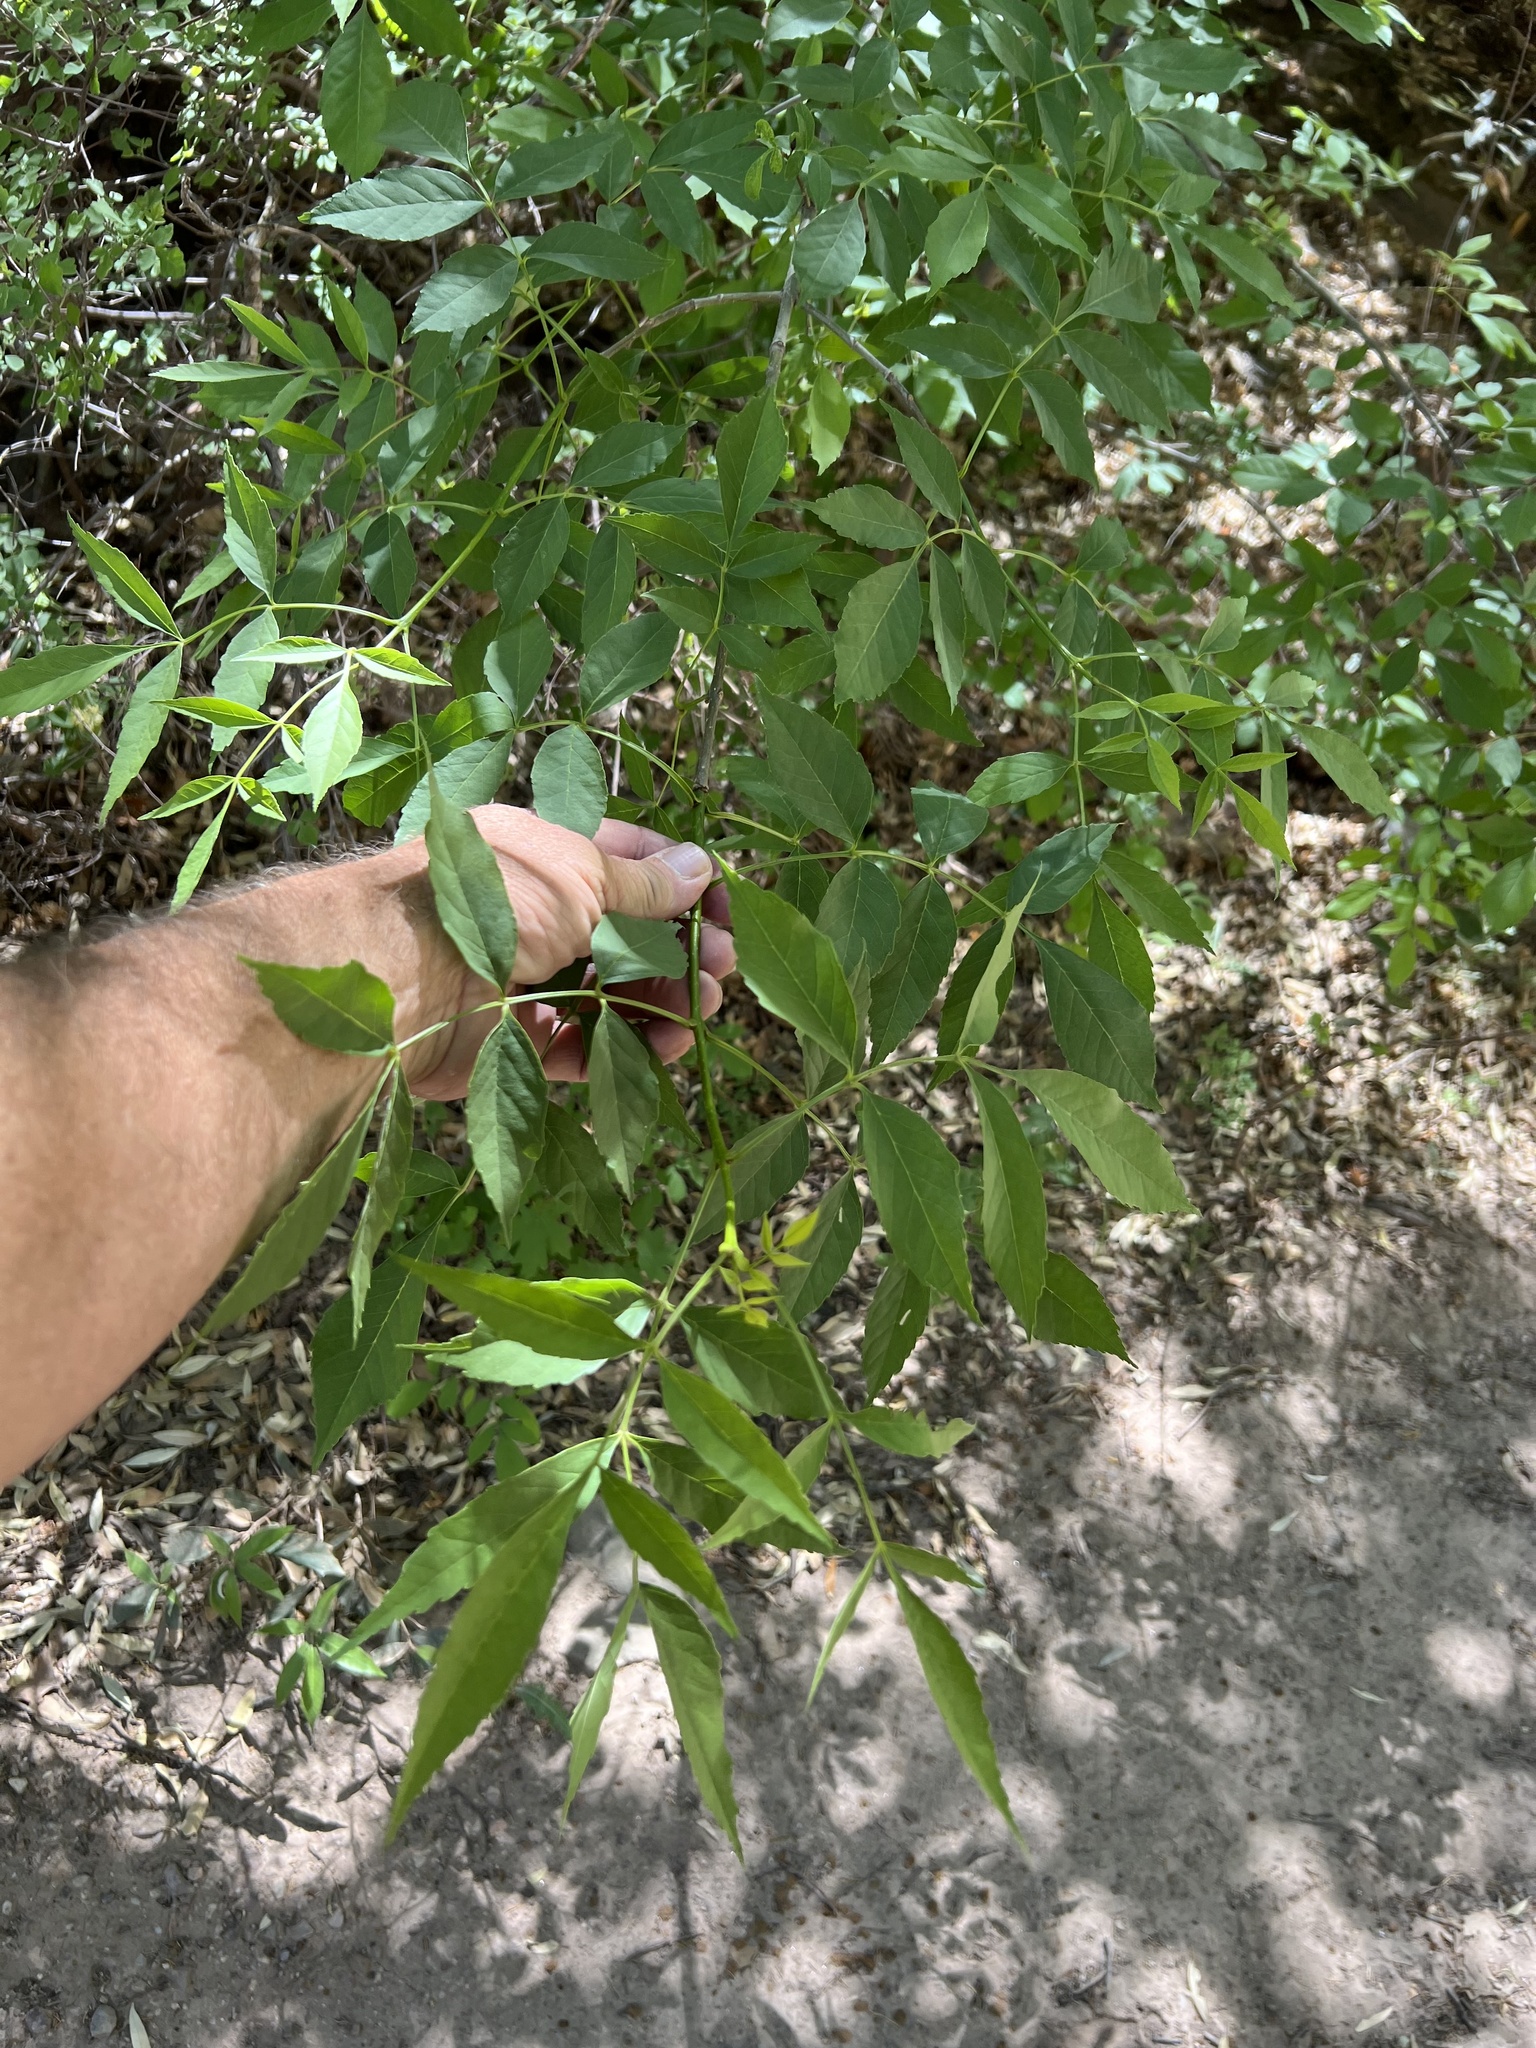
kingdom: Plantae
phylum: Tracheophyta
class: Magnoliopsida
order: Lamiales
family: Oleaceae
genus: Fraxinus
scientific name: Fraxinus velutina
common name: Arizon ash
